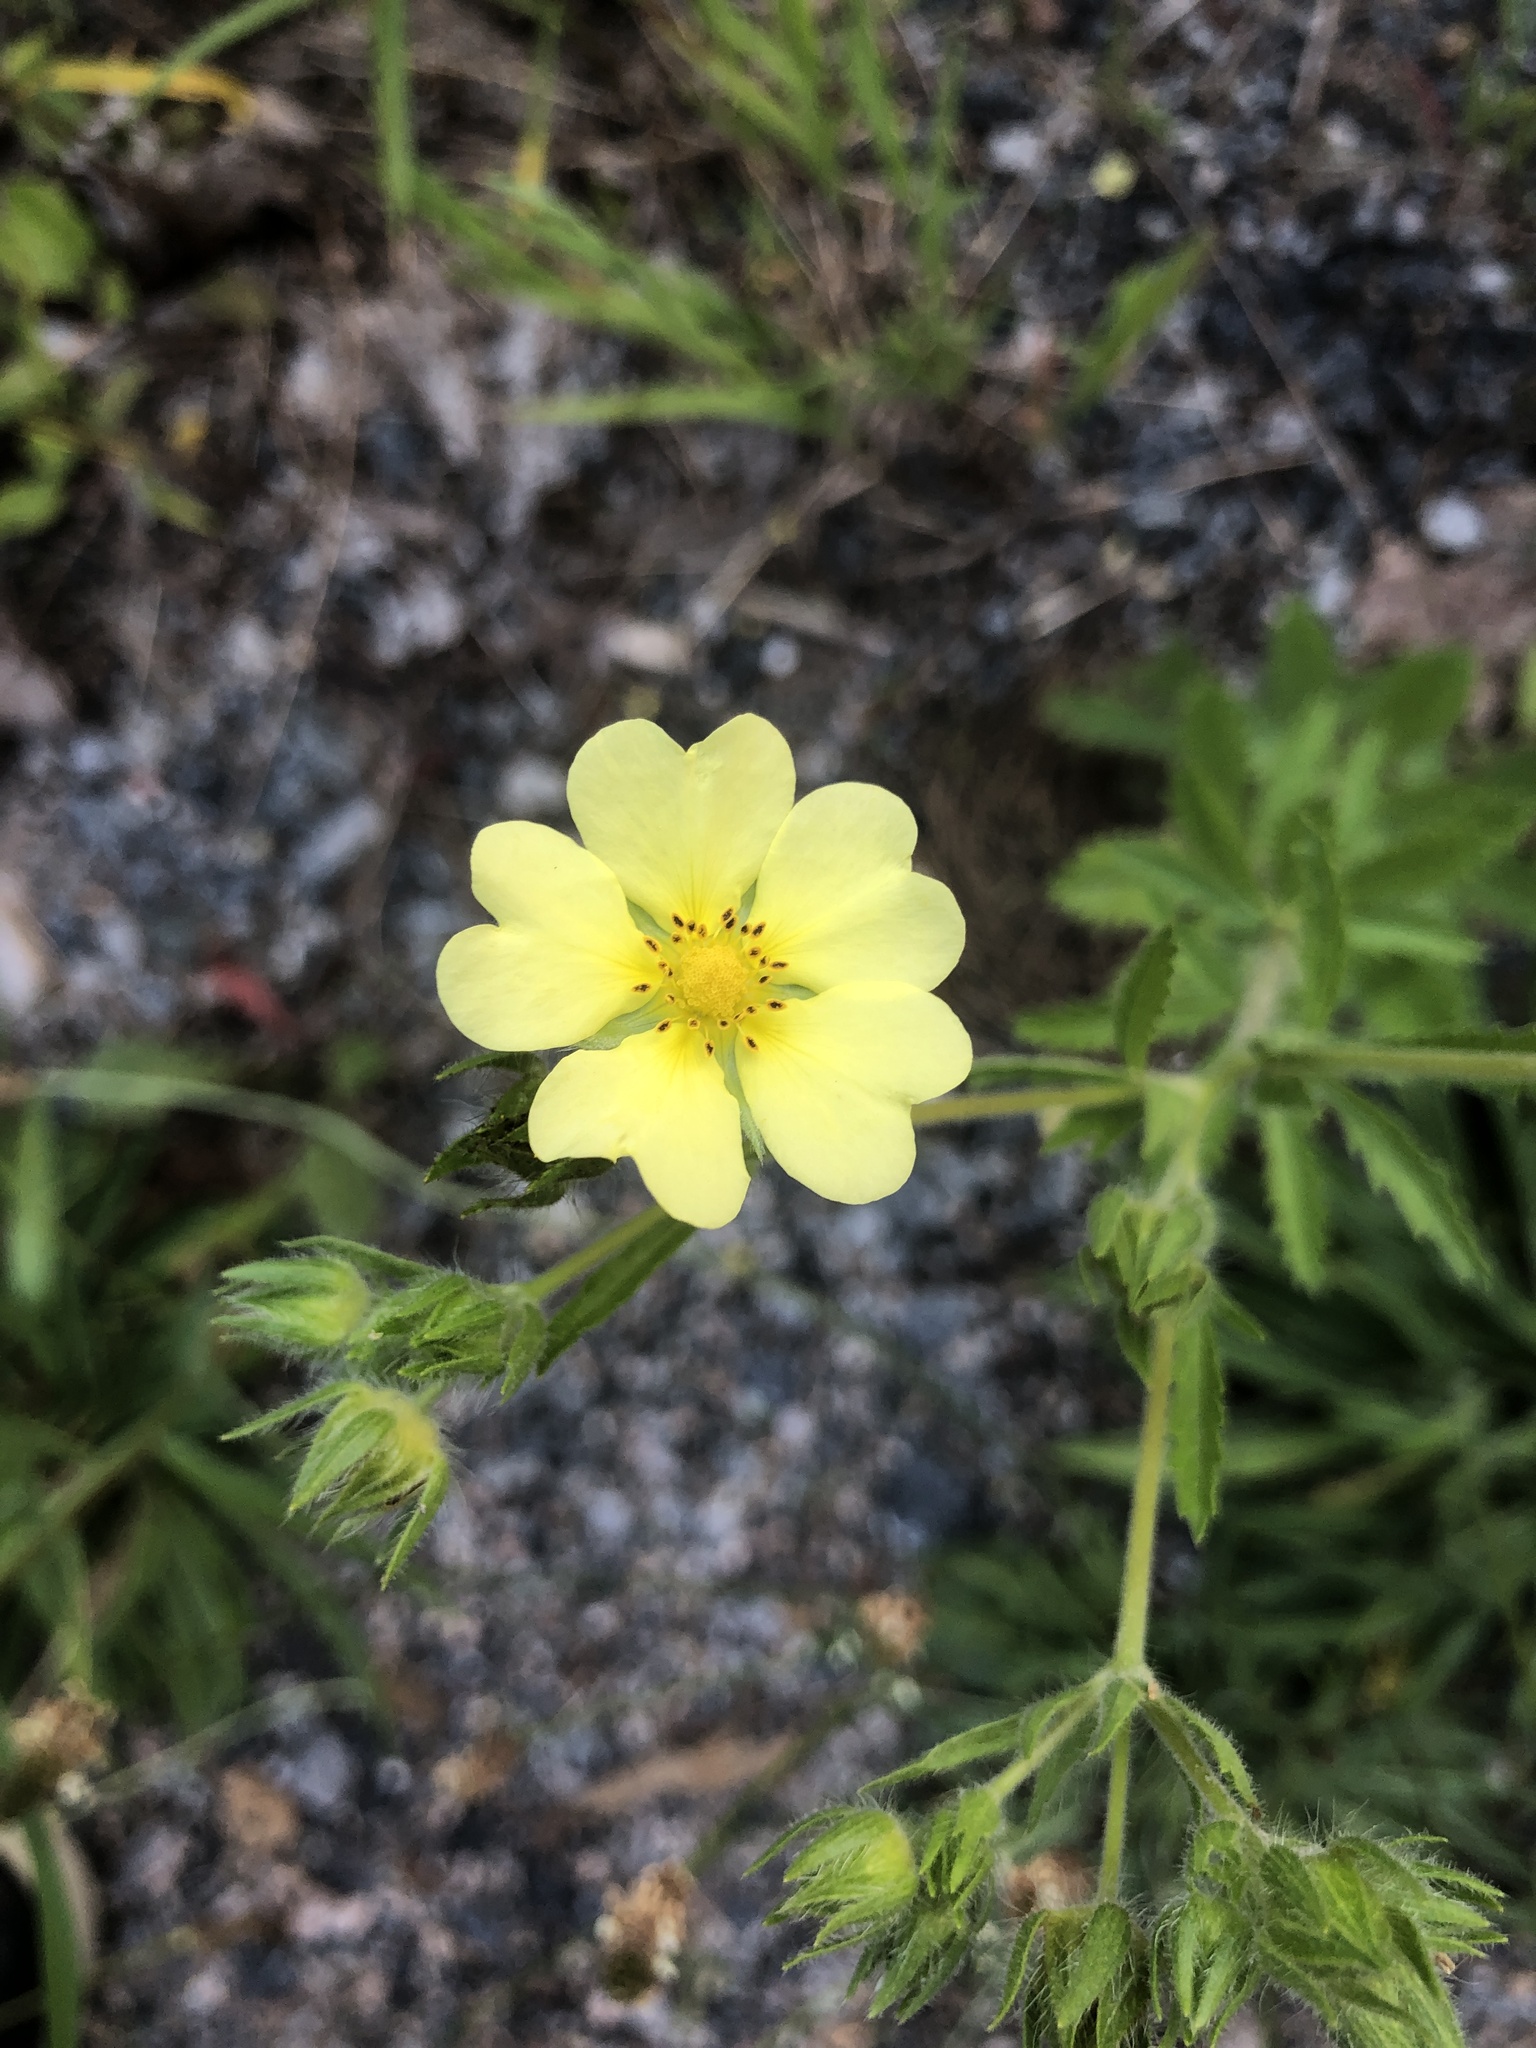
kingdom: Plantae
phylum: Tracheophyta
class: Magnoliopsida
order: Rosales
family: Rosaceae
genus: Potentilla
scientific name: Potentilla recta
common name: Sulphur cinquefoil
